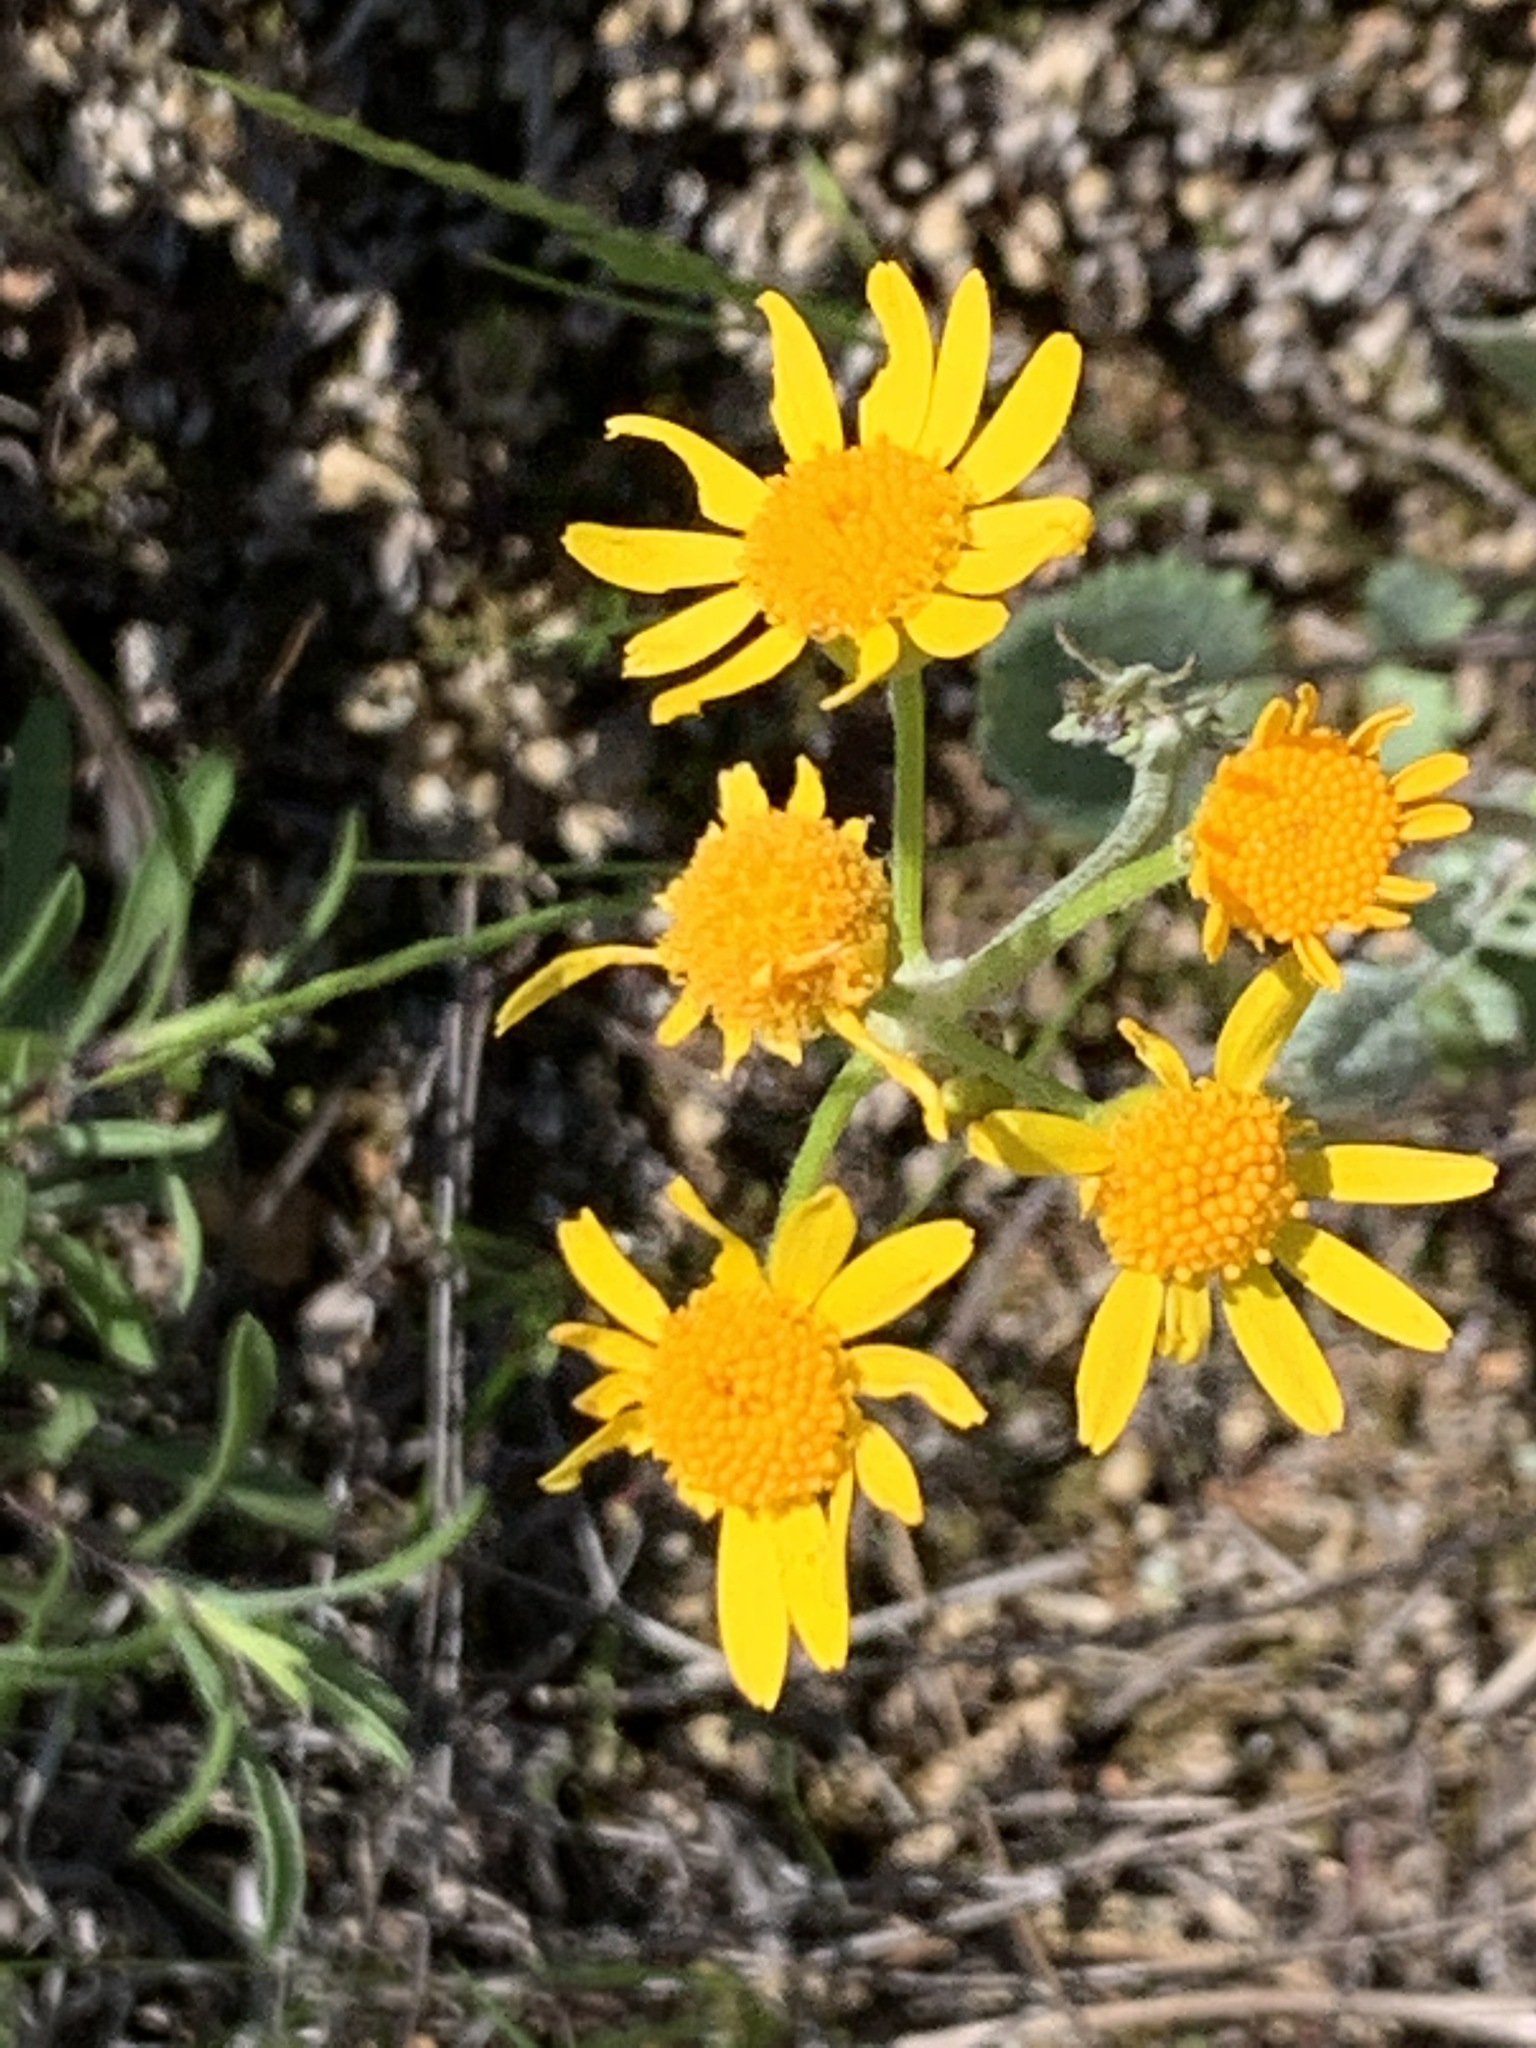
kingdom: Plantae
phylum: Tracheophyta
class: Magnoliopsida
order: Asterales
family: Asteraceae
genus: Packera
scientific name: Packera plattensis
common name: Prairie groundsel
